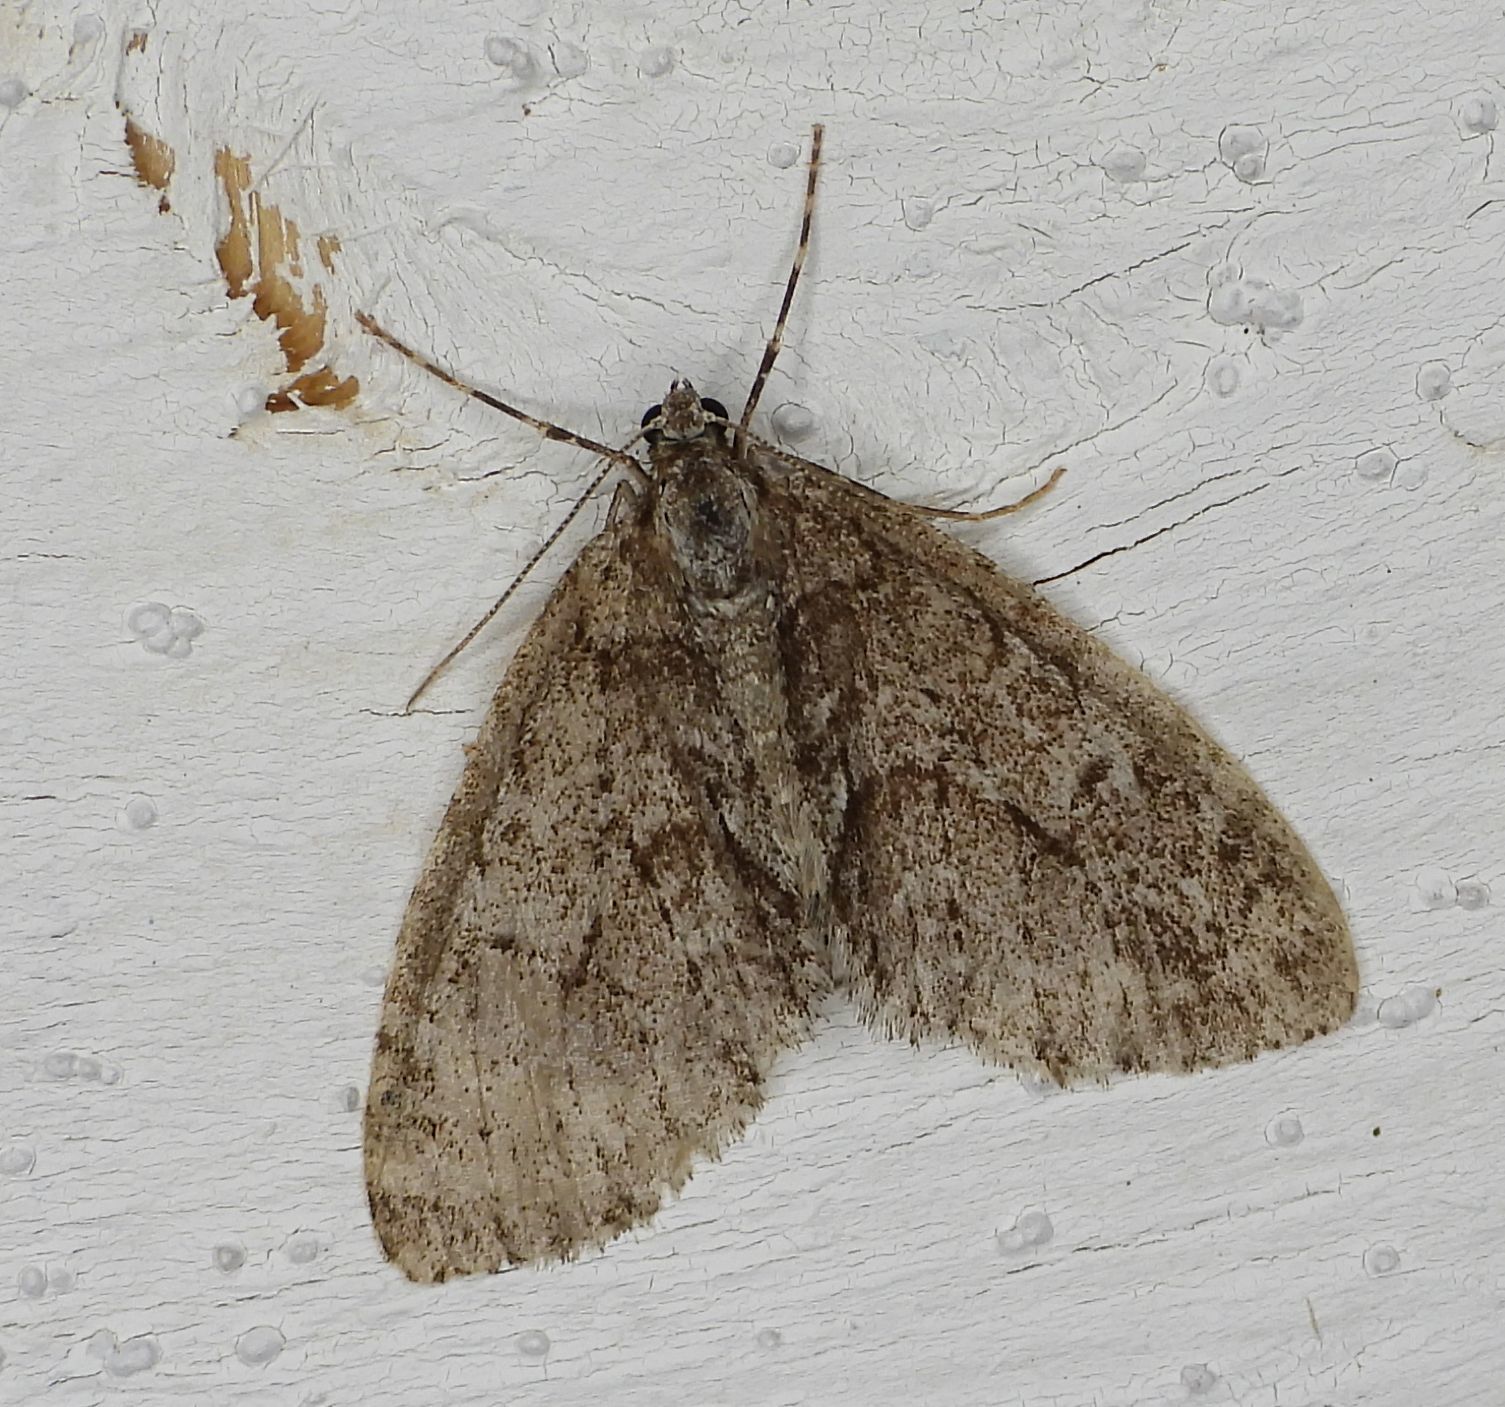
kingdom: Animalia
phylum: Arthropoda
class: Insecta
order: Lepidoptera
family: Geometridae
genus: Cladara
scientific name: Cladara limitaria
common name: Mottled gray carpet
